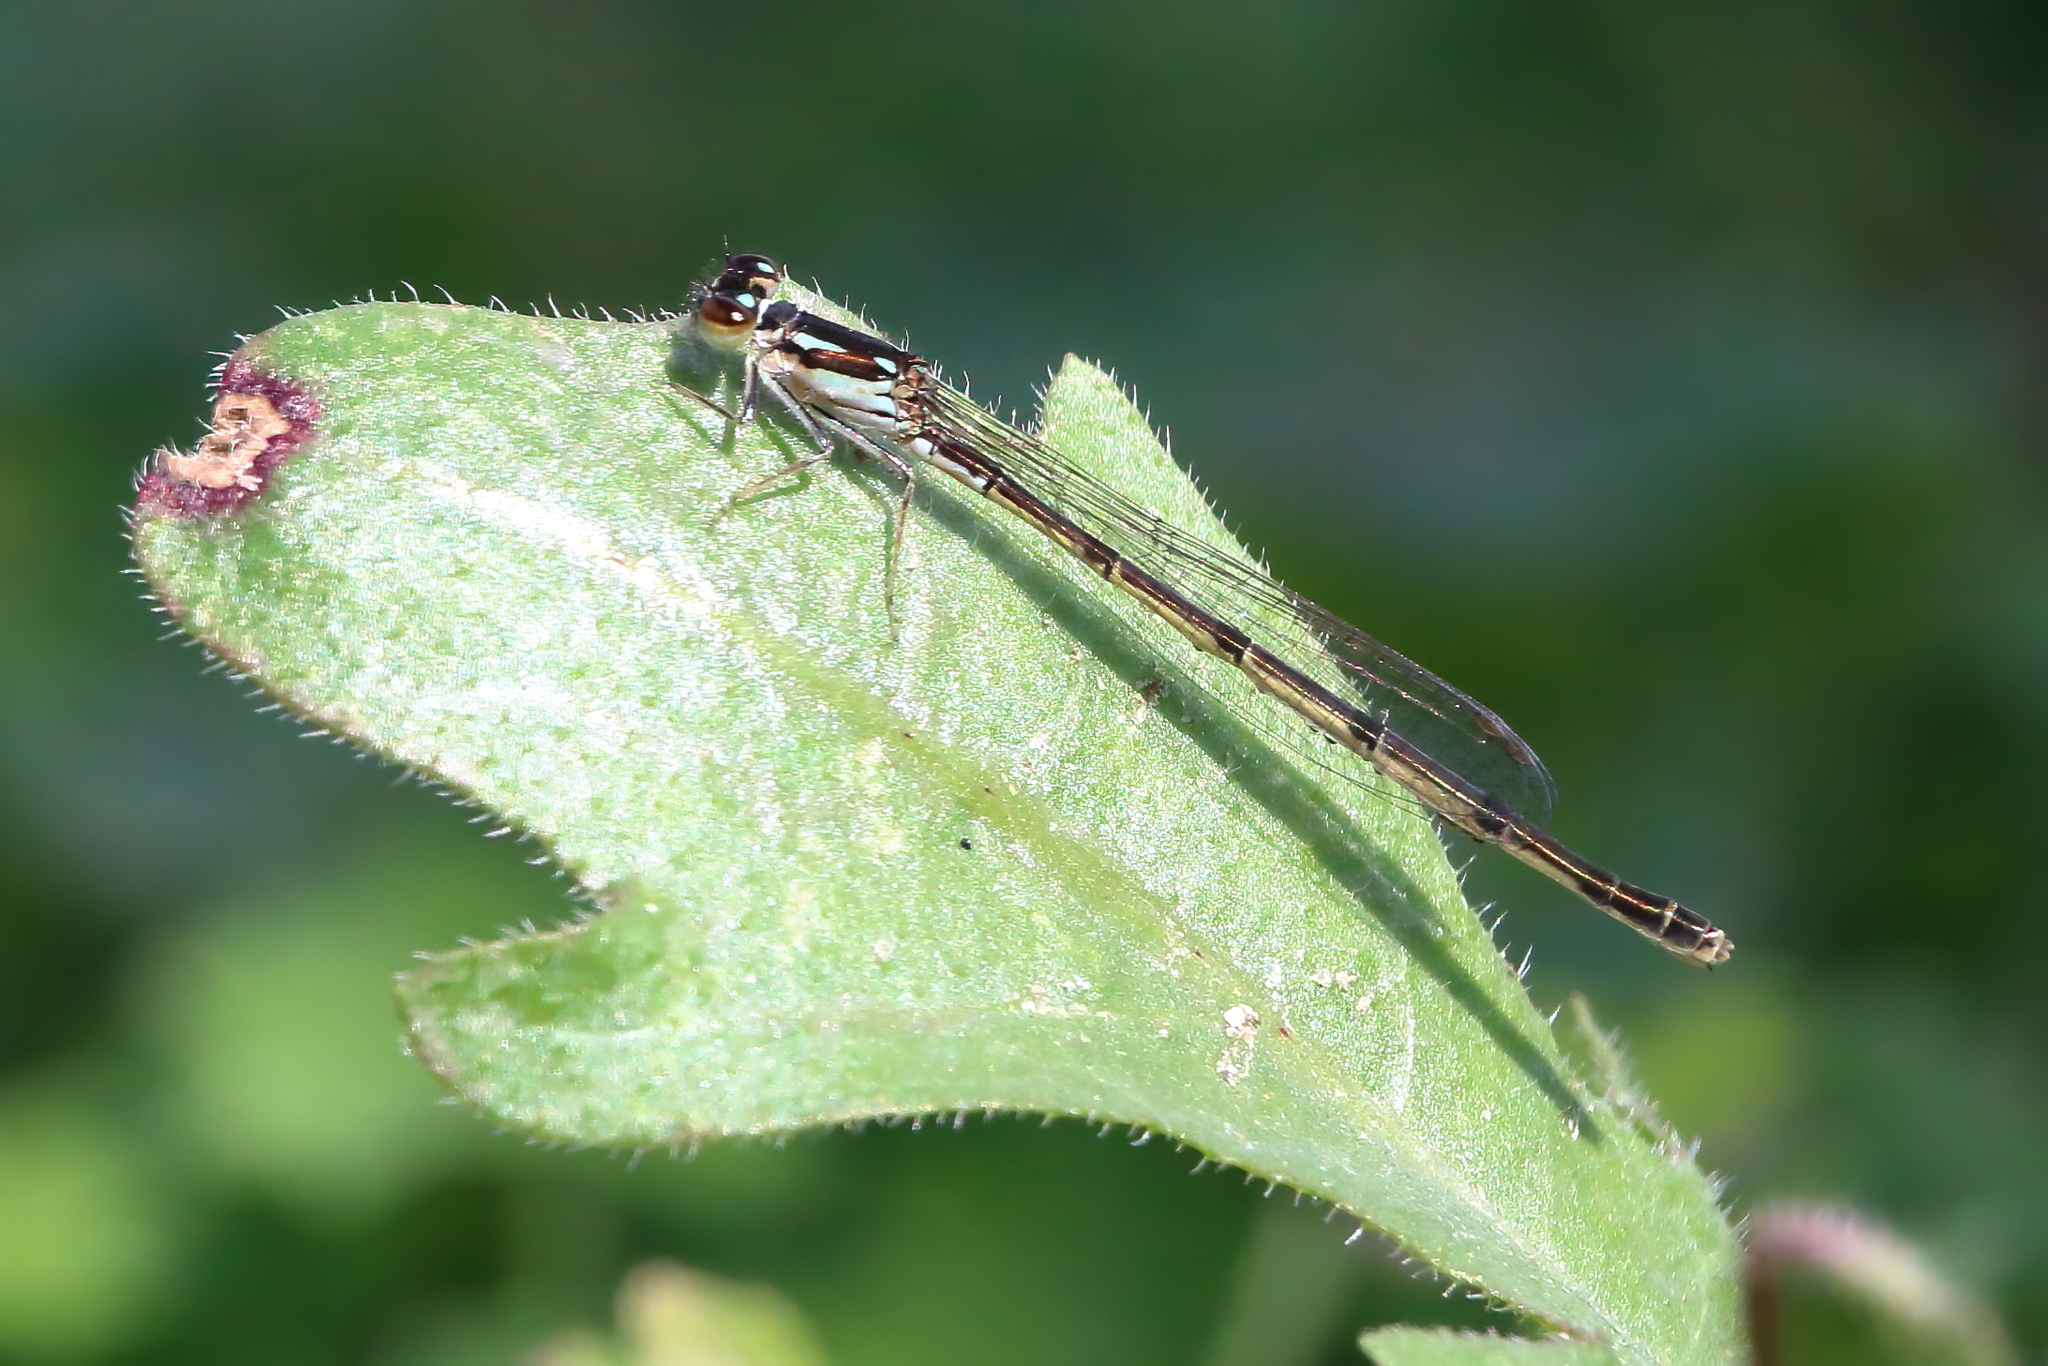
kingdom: Animalia
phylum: Arthropoda
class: Insecta
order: Odonata
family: Coenagrionidae
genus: Ischnura
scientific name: Ischnura posita
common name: Fragile forktail
